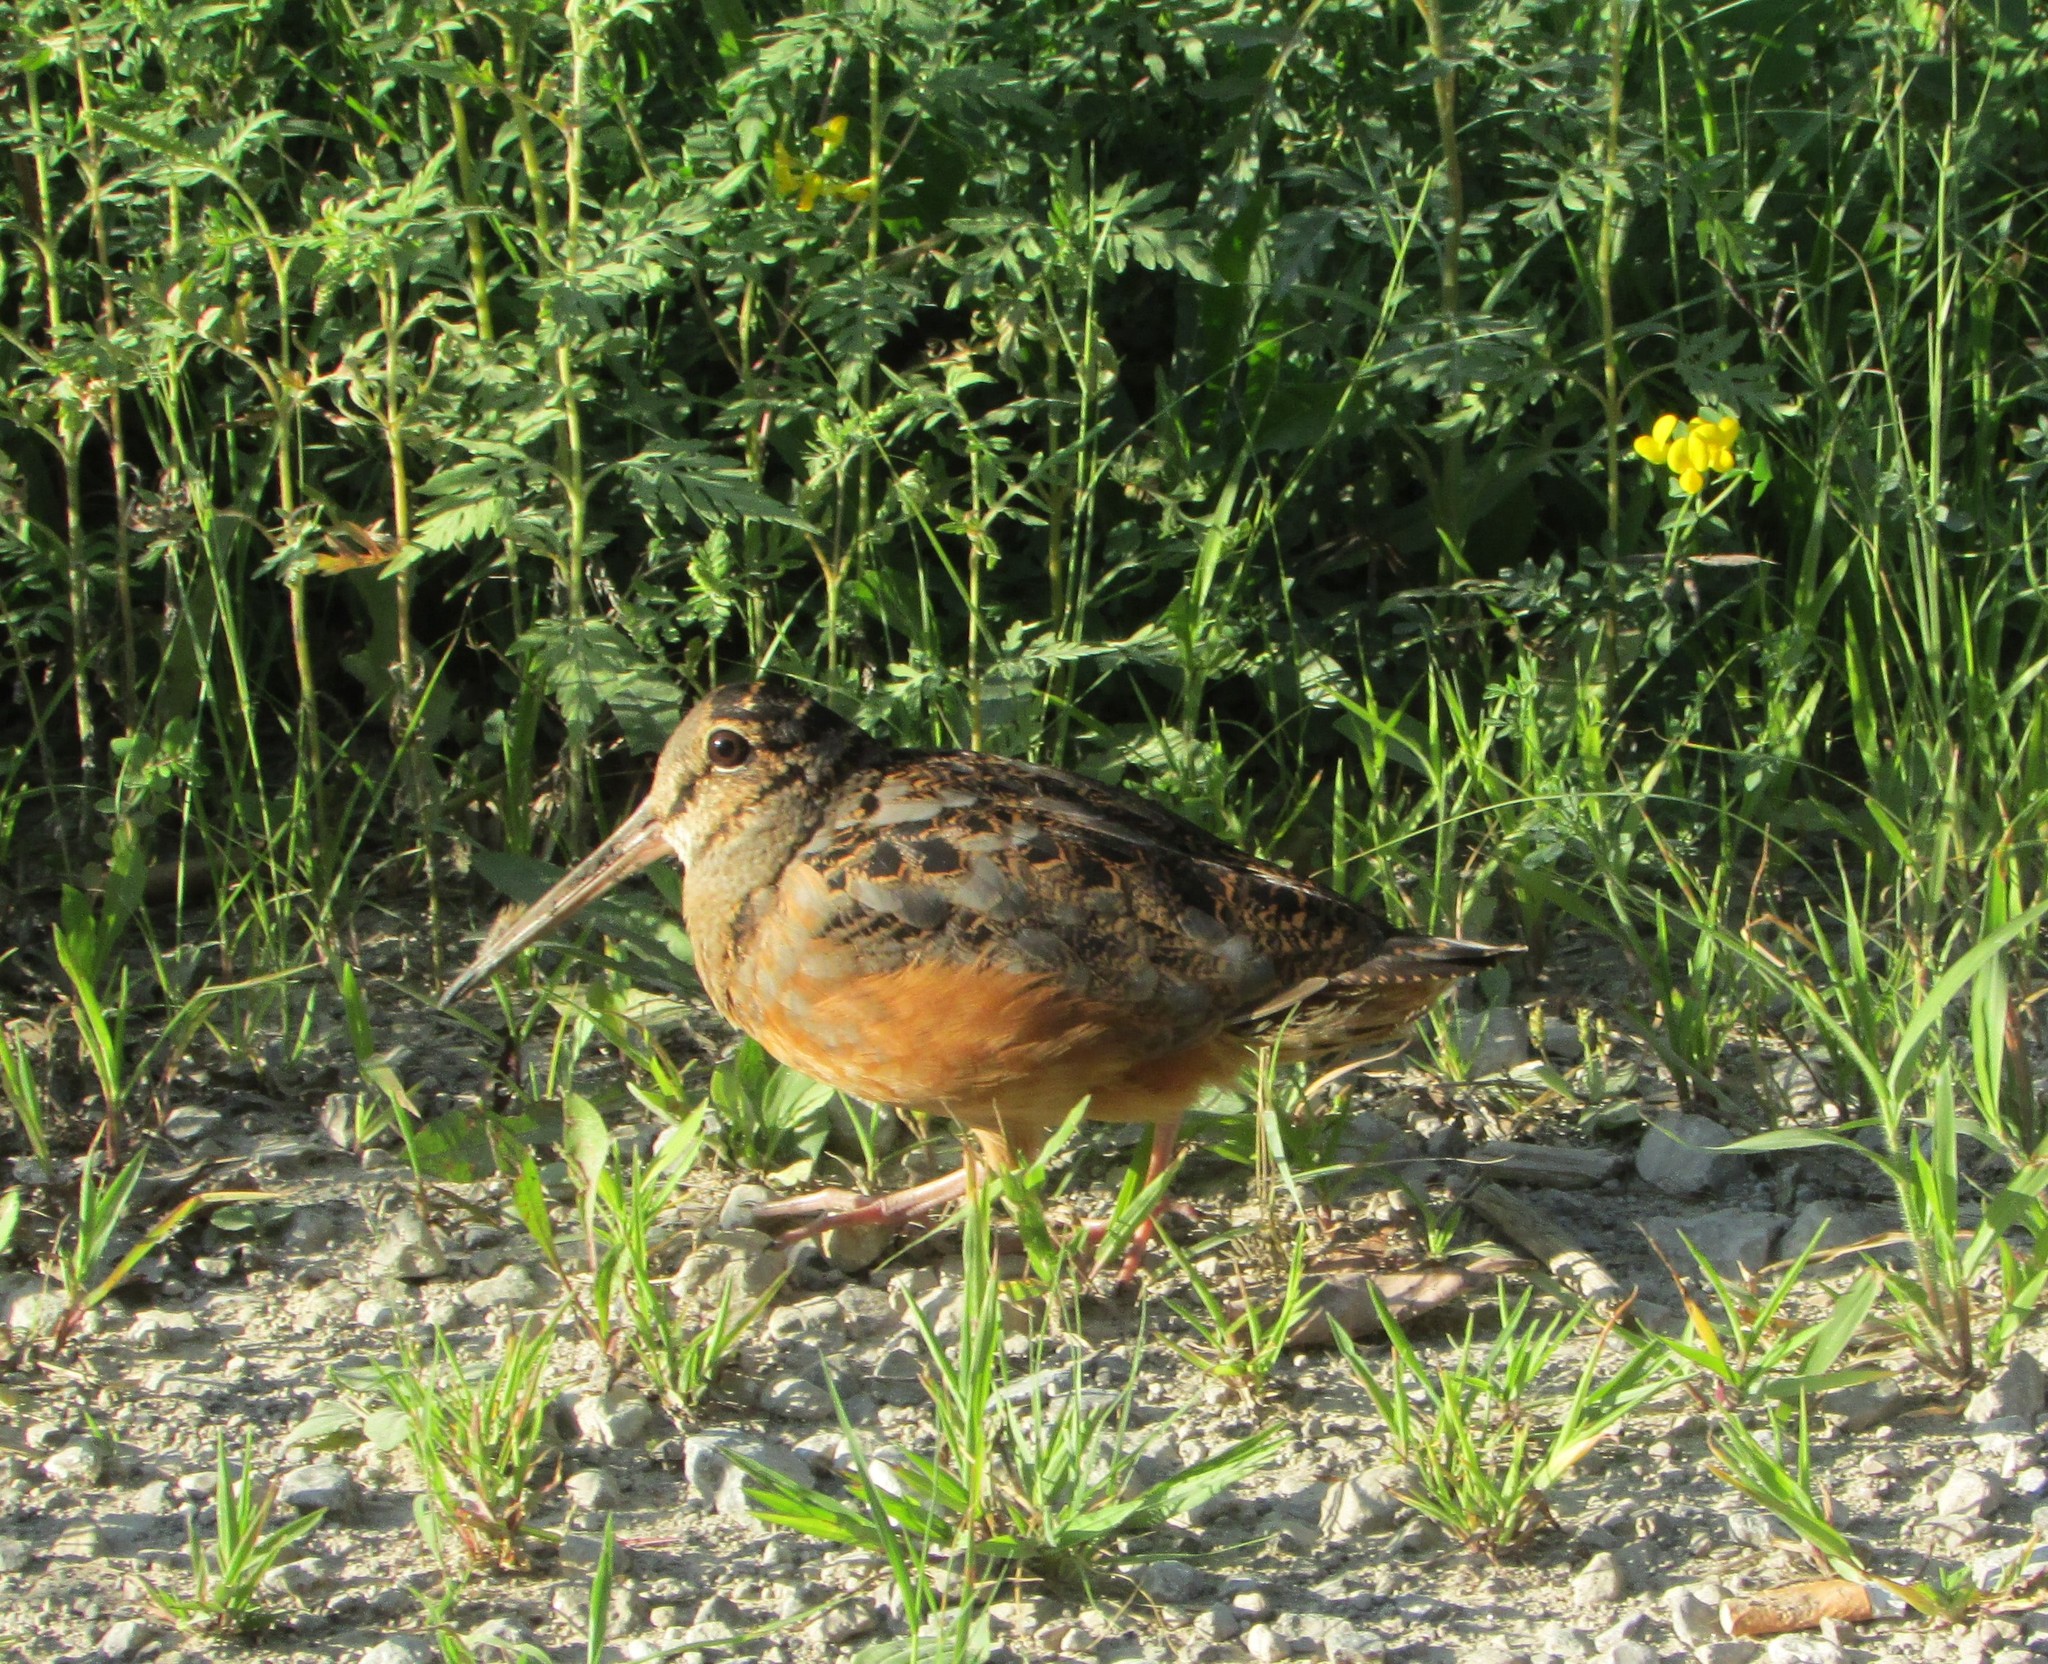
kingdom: Animalia
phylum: Chordata
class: Aves
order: Charadriiformes
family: Scolopacidae
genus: Scolopax
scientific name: Scolopax minor
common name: American woodcock
